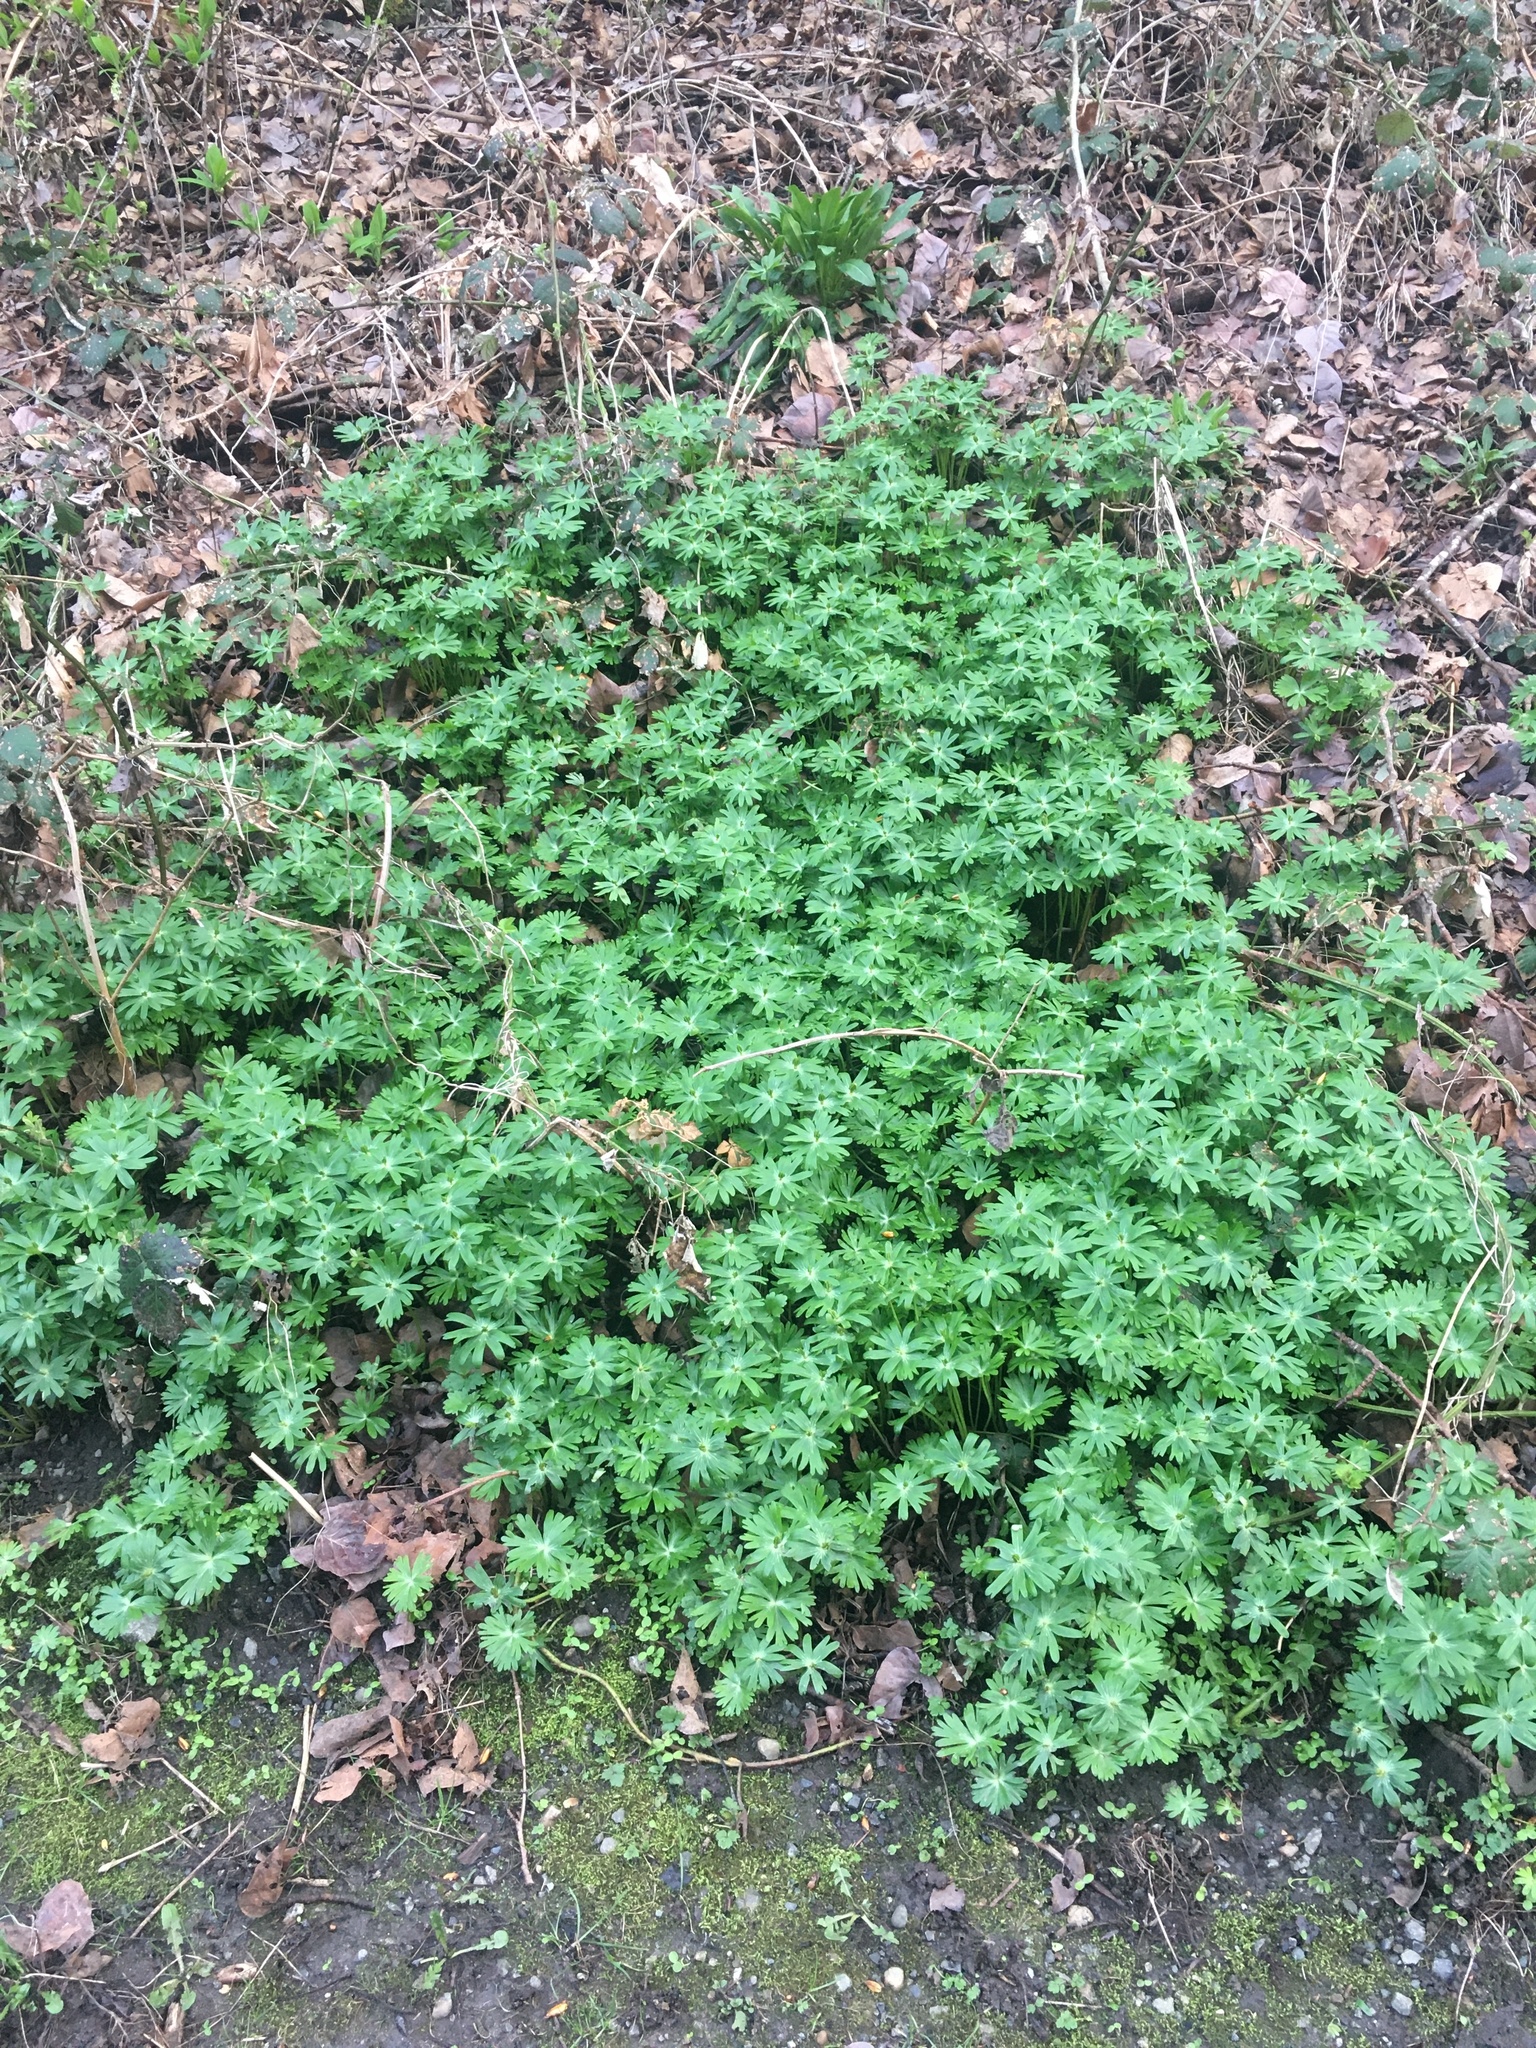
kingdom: Plantae
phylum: Tracheophyta
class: Magnoliopsida
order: Ranunculales
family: Ranunculaceae
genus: Eranthis
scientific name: Eranthis hyemalis
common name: Winter aconite
